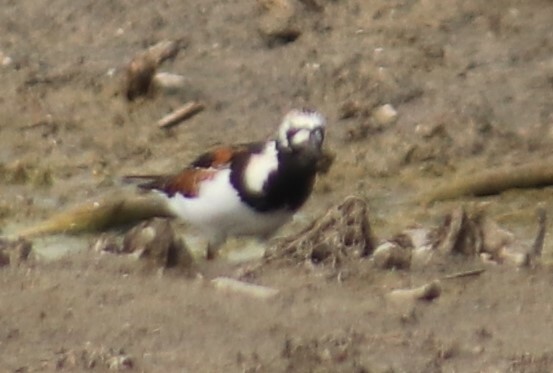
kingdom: Animalia
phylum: Chordata
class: Aves
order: Charadriiformes
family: Scolopacidae
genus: Arenaria
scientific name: Arenaria interpres
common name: Ruddy turnstone
